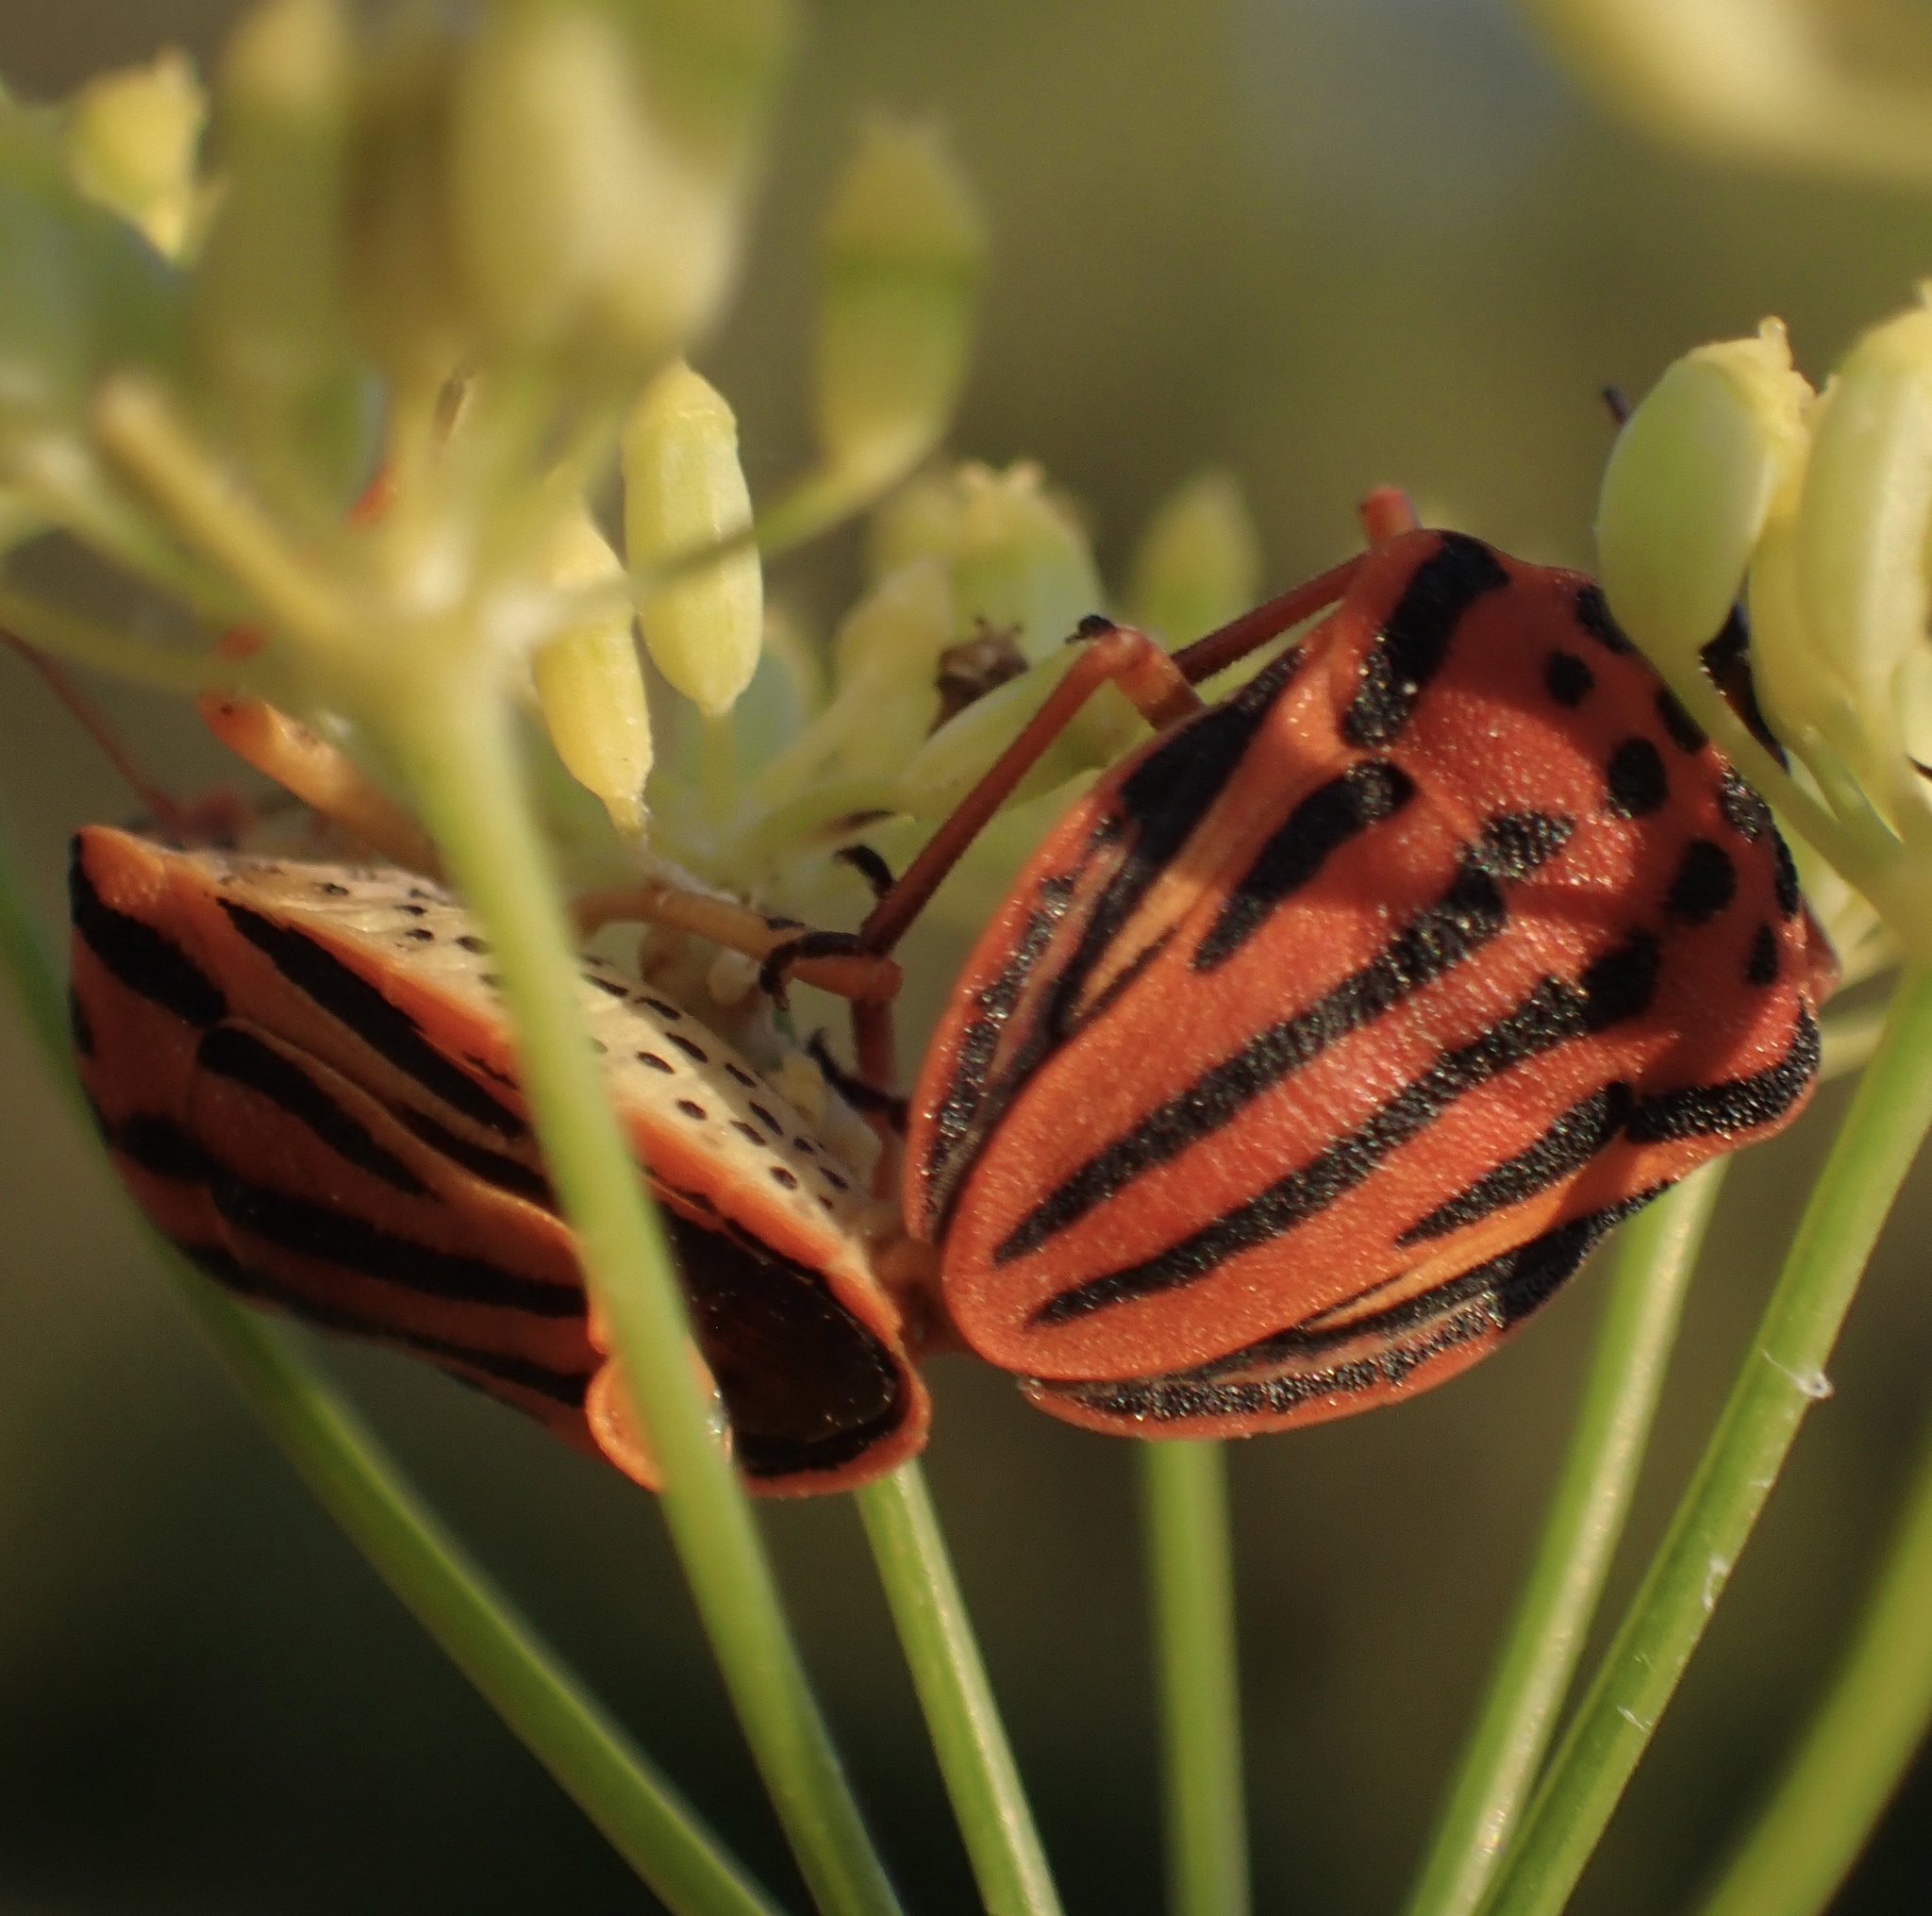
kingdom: Animalia
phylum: Arthropoda
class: Insecta
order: Hemiptera
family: Pentatomidae
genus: Graphosoma
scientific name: Graphosoma semipunctatum
